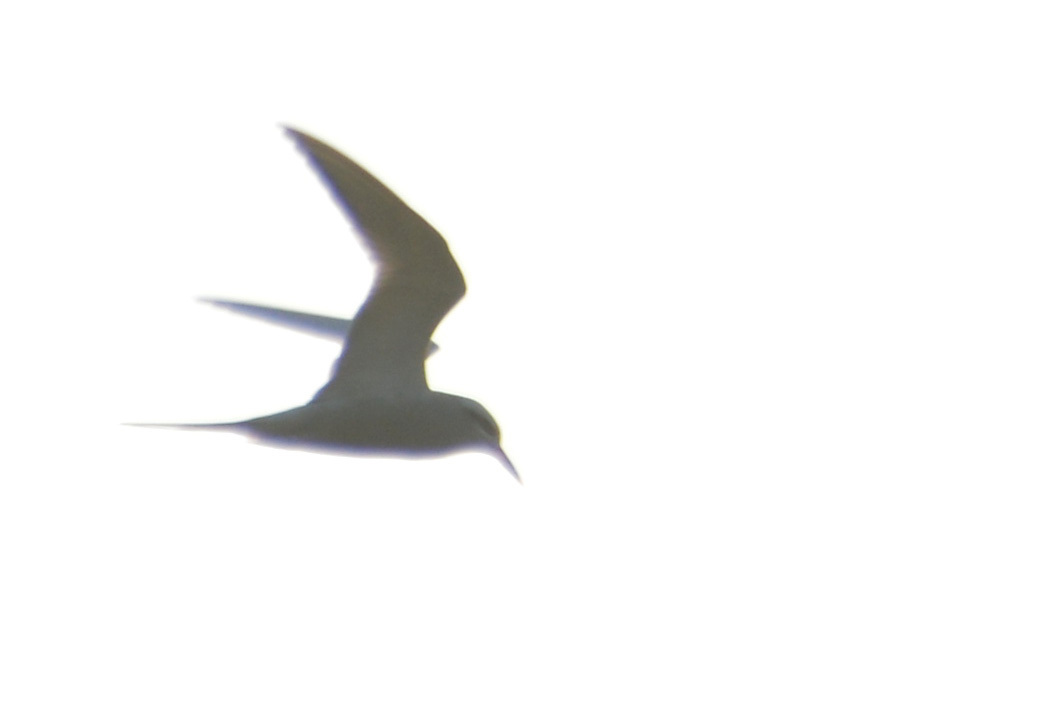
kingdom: Animalia
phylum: Chordata
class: Aves
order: Charadriiformes
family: Laridae
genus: Sterna
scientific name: Sterna trudeaui
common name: Snowy-crowned tern
